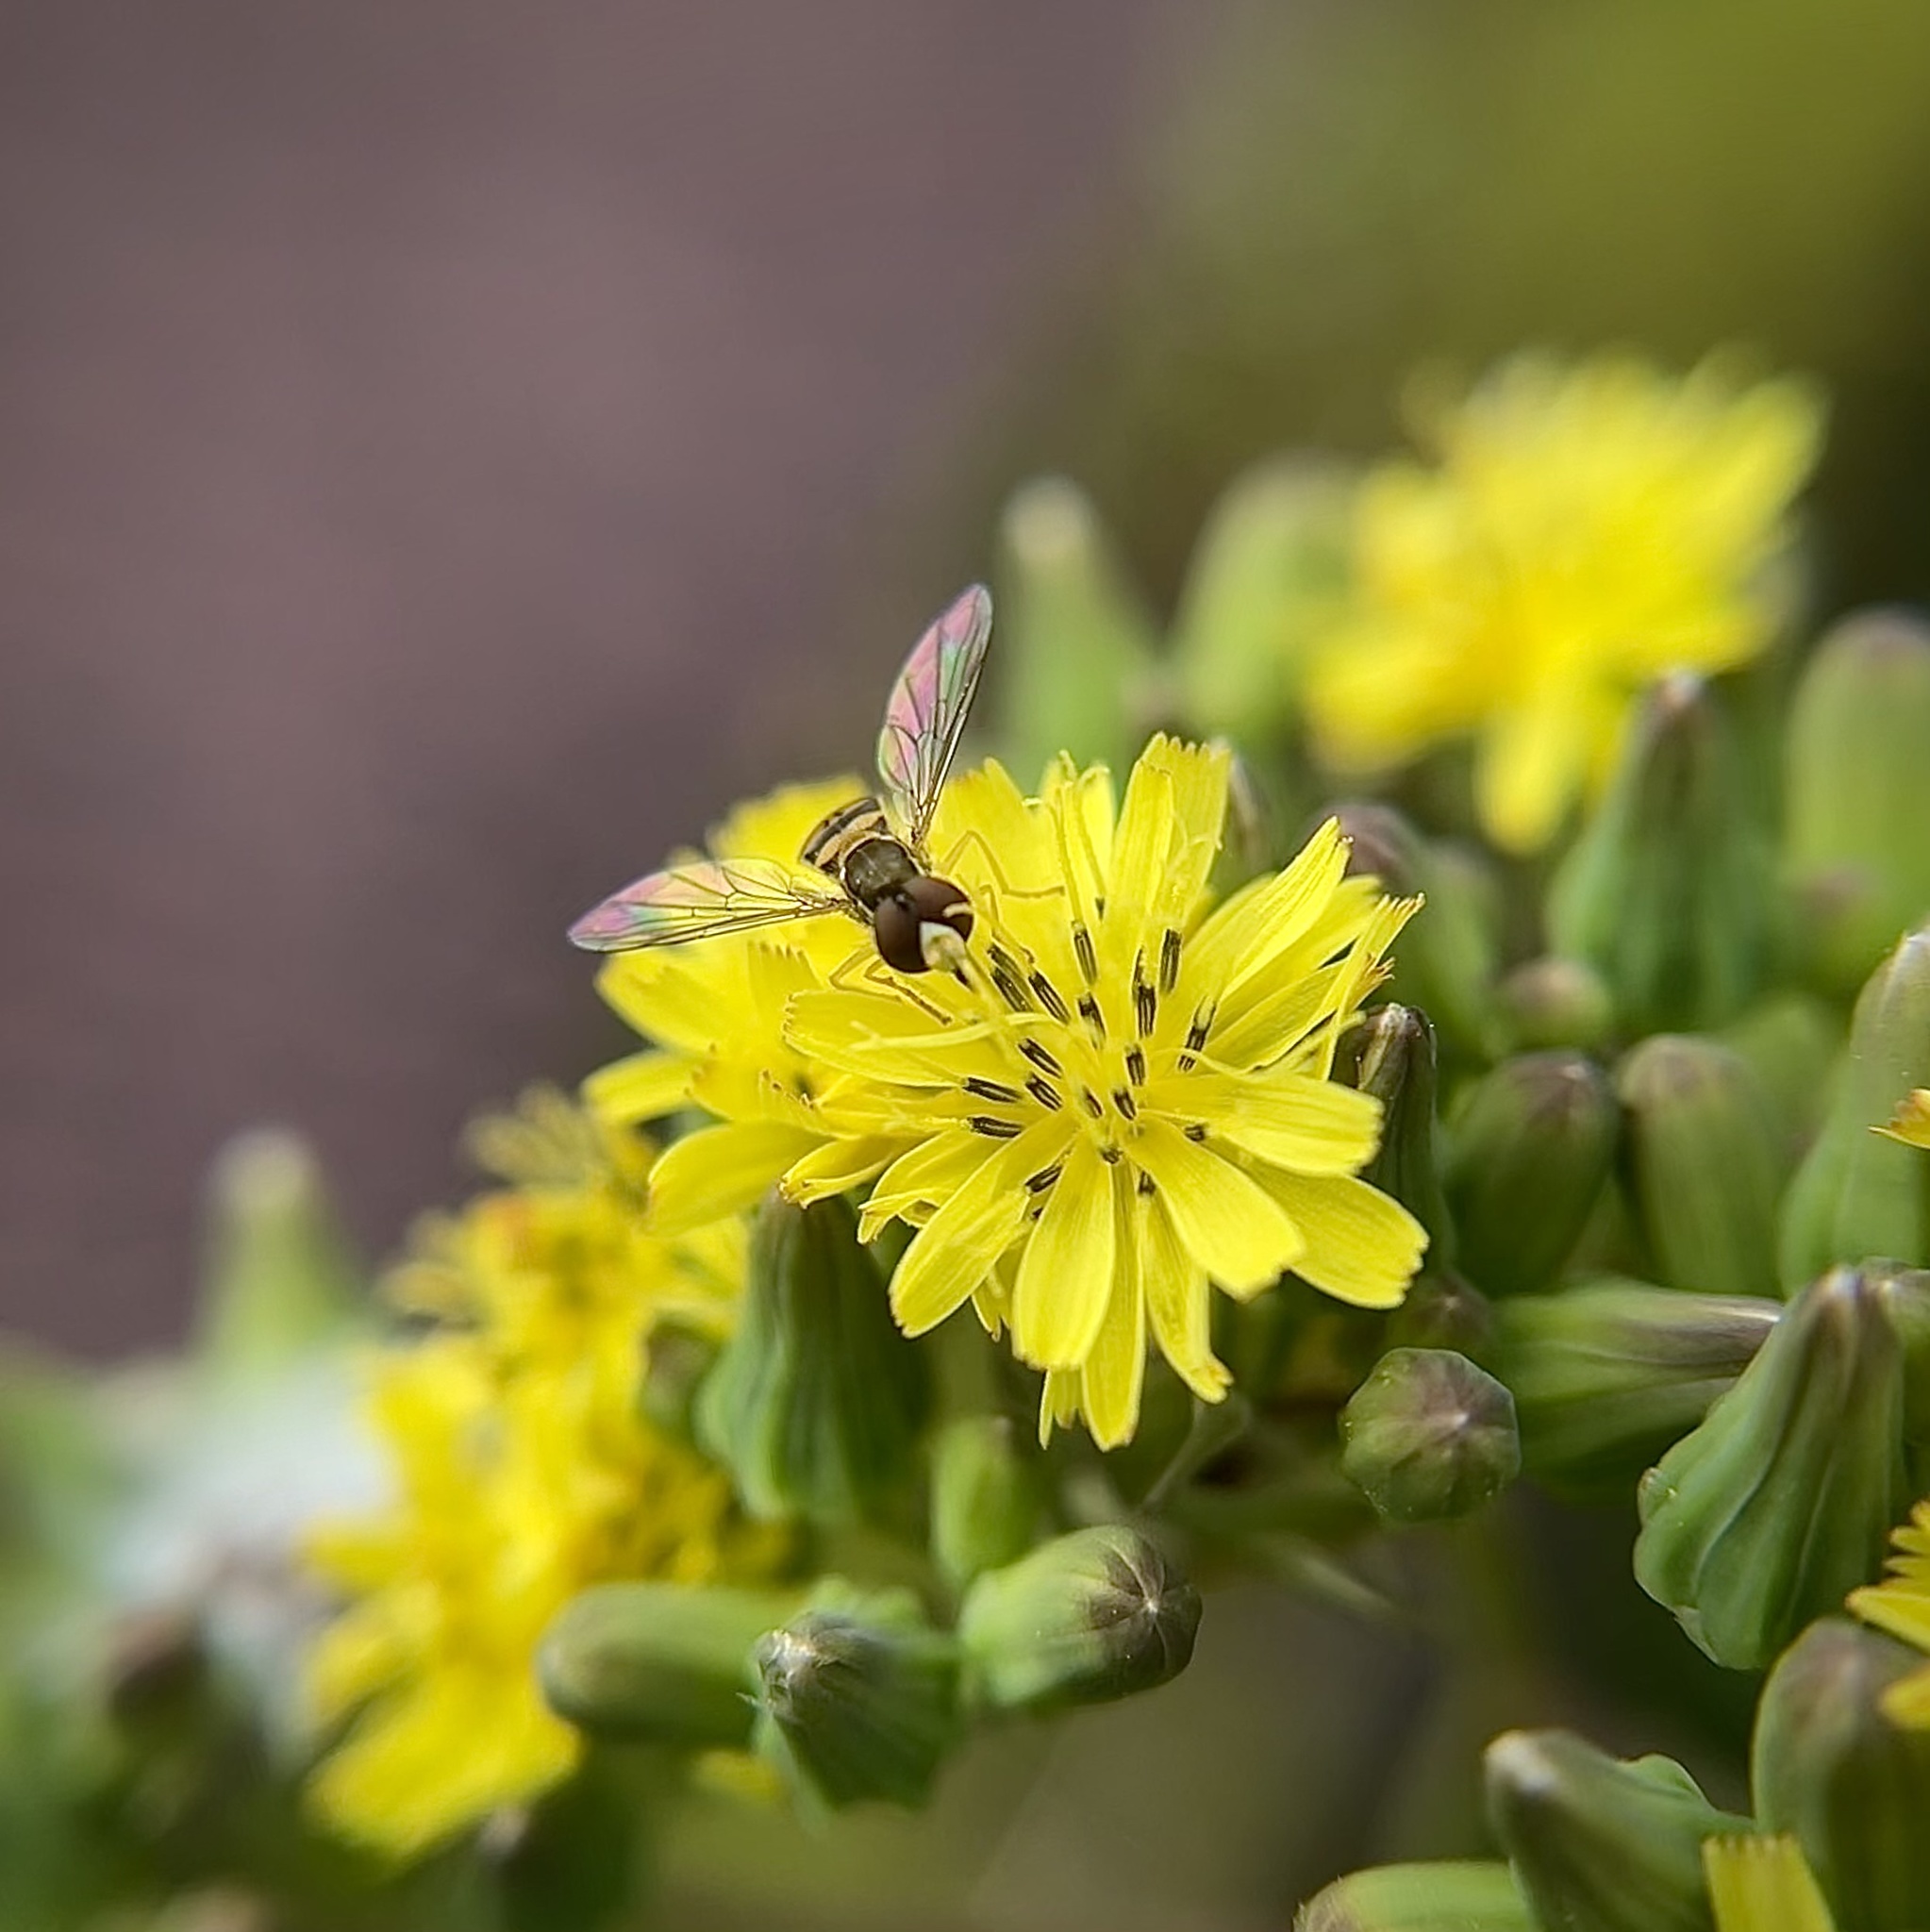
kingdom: Animalia
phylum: Arthropoda
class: Insecta
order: Diptera
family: Syrphidae
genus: Toxomerus
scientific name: Toxomerus marginatus
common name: Syrphid fly
